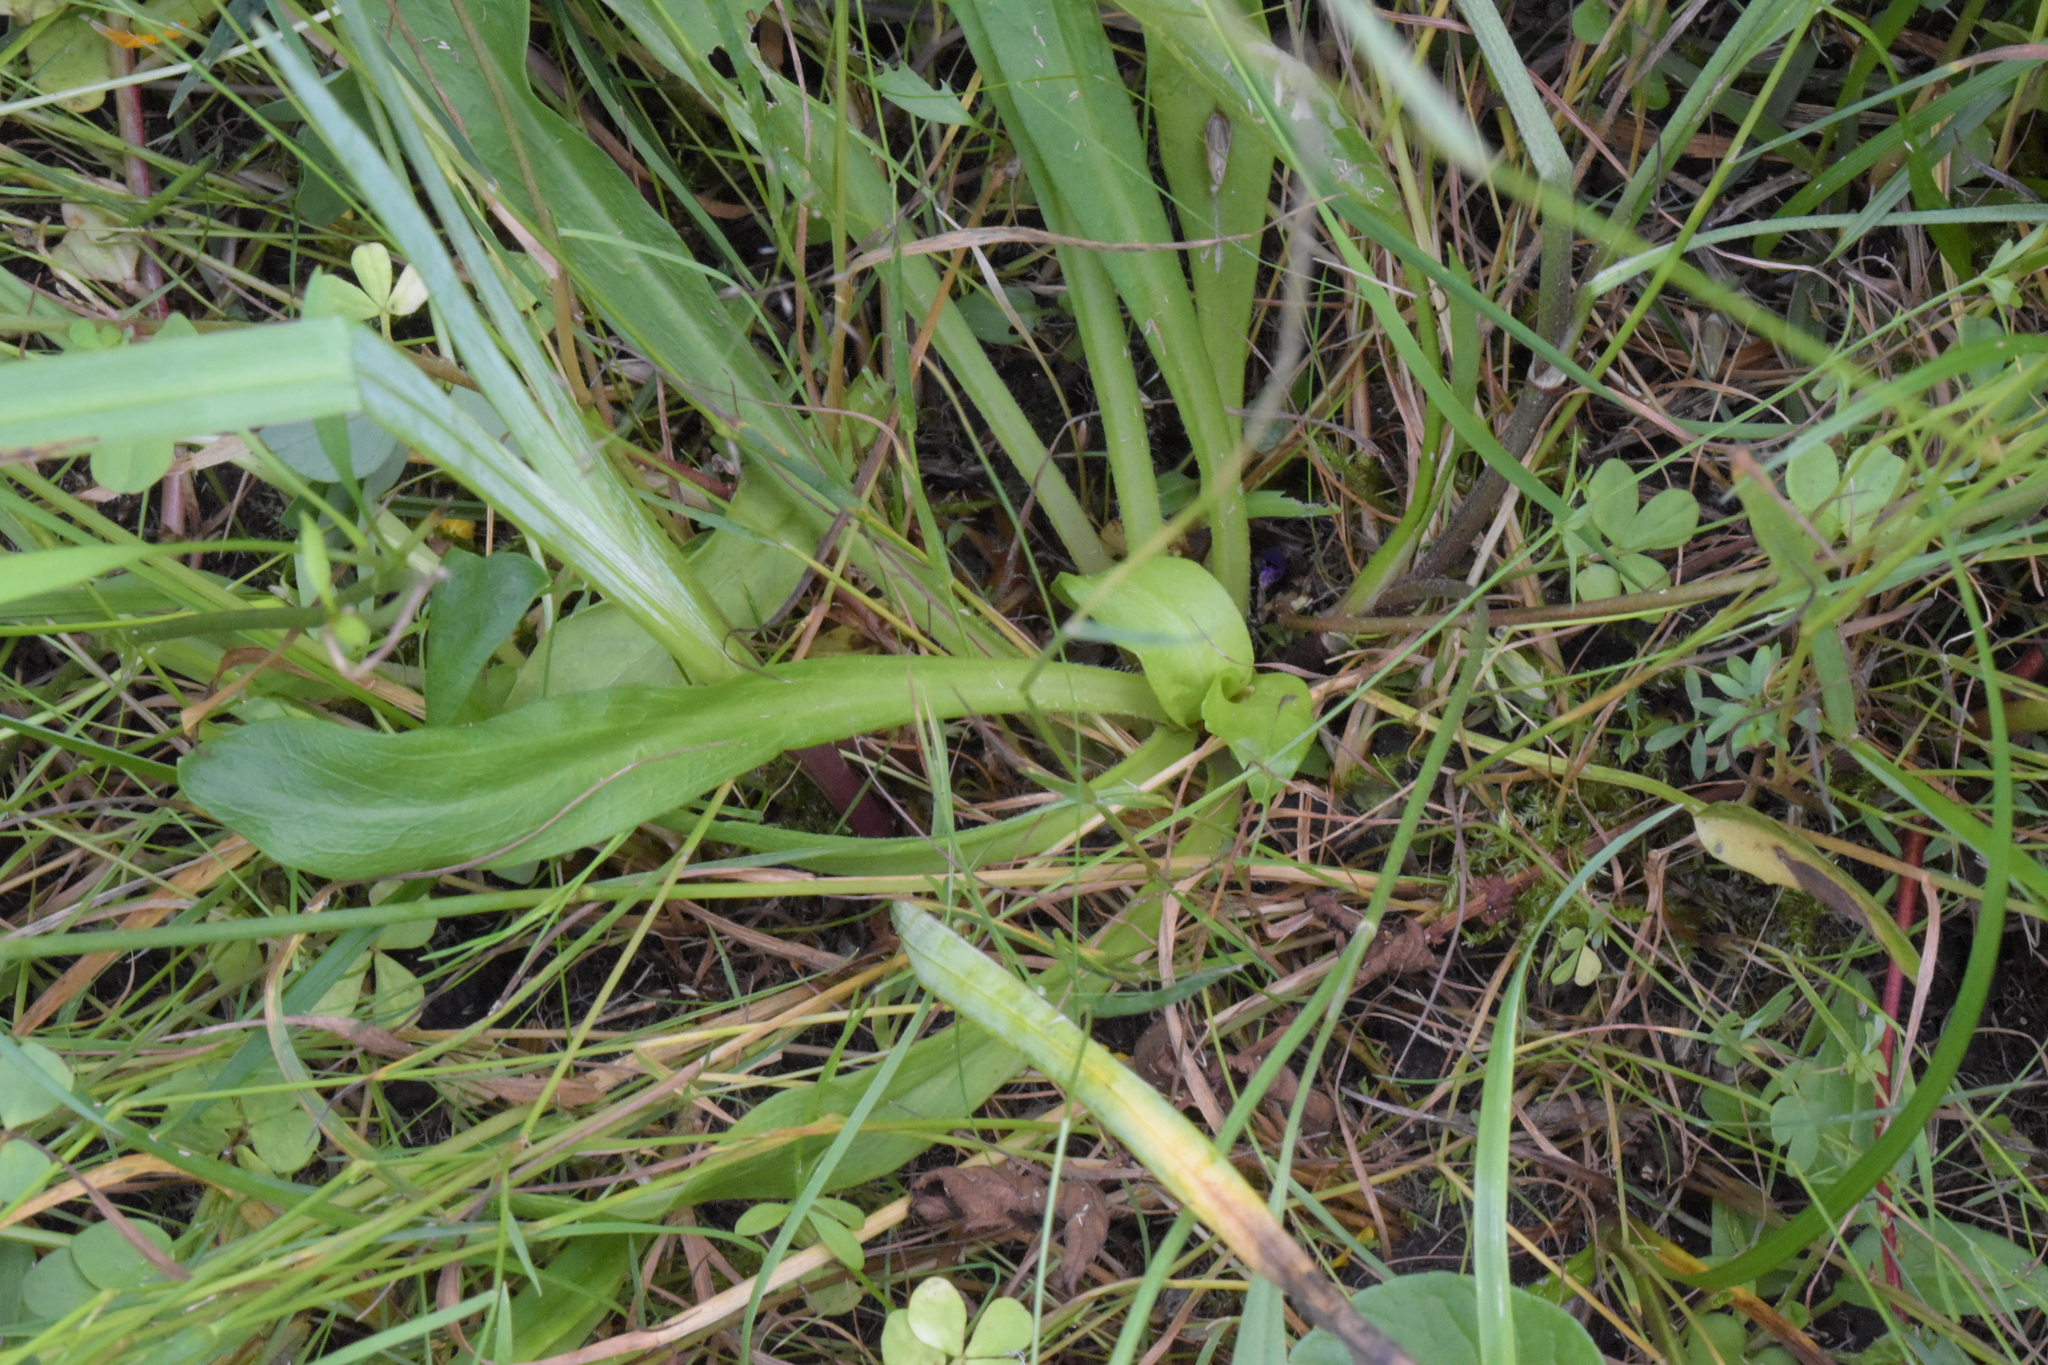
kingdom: Plantae
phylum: Tracheophyta
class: Magnoliopsida
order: Caryophyllales
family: Caryophyllaceae
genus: Silene
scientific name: Silene flos-cuculi
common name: Ragged-robin
